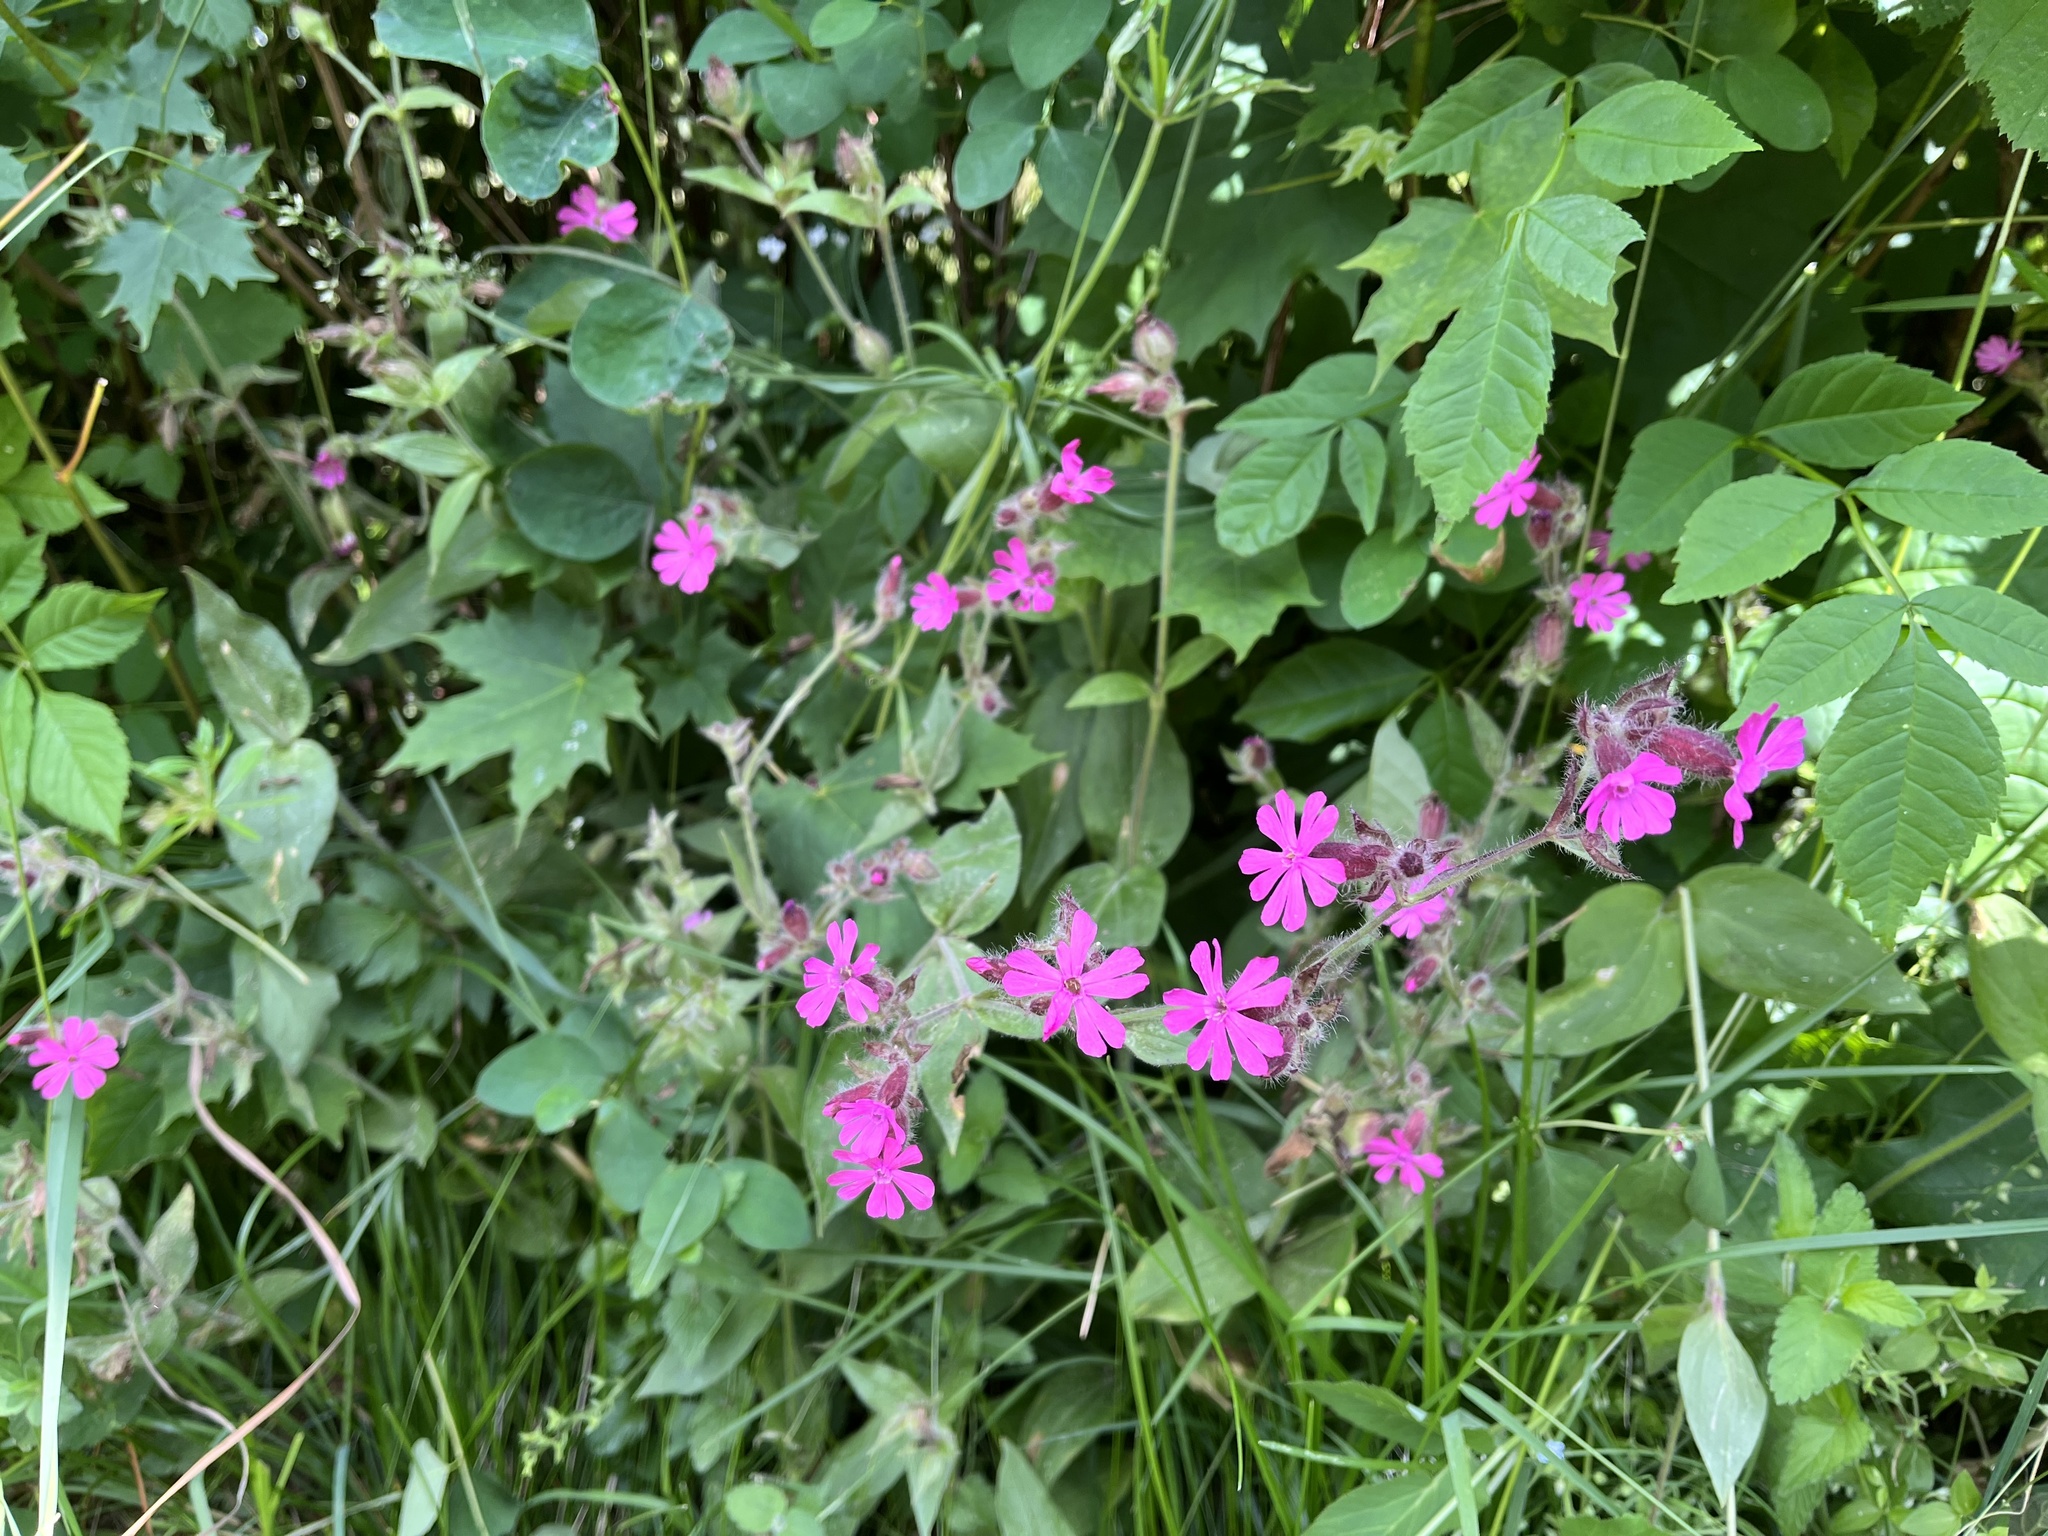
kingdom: Plantae
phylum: Tracheophyta
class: Magnoliopsida
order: Caryophyllales
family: Caryophyllaceae
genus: Silene
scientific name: Silene dioica
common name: Red campion
